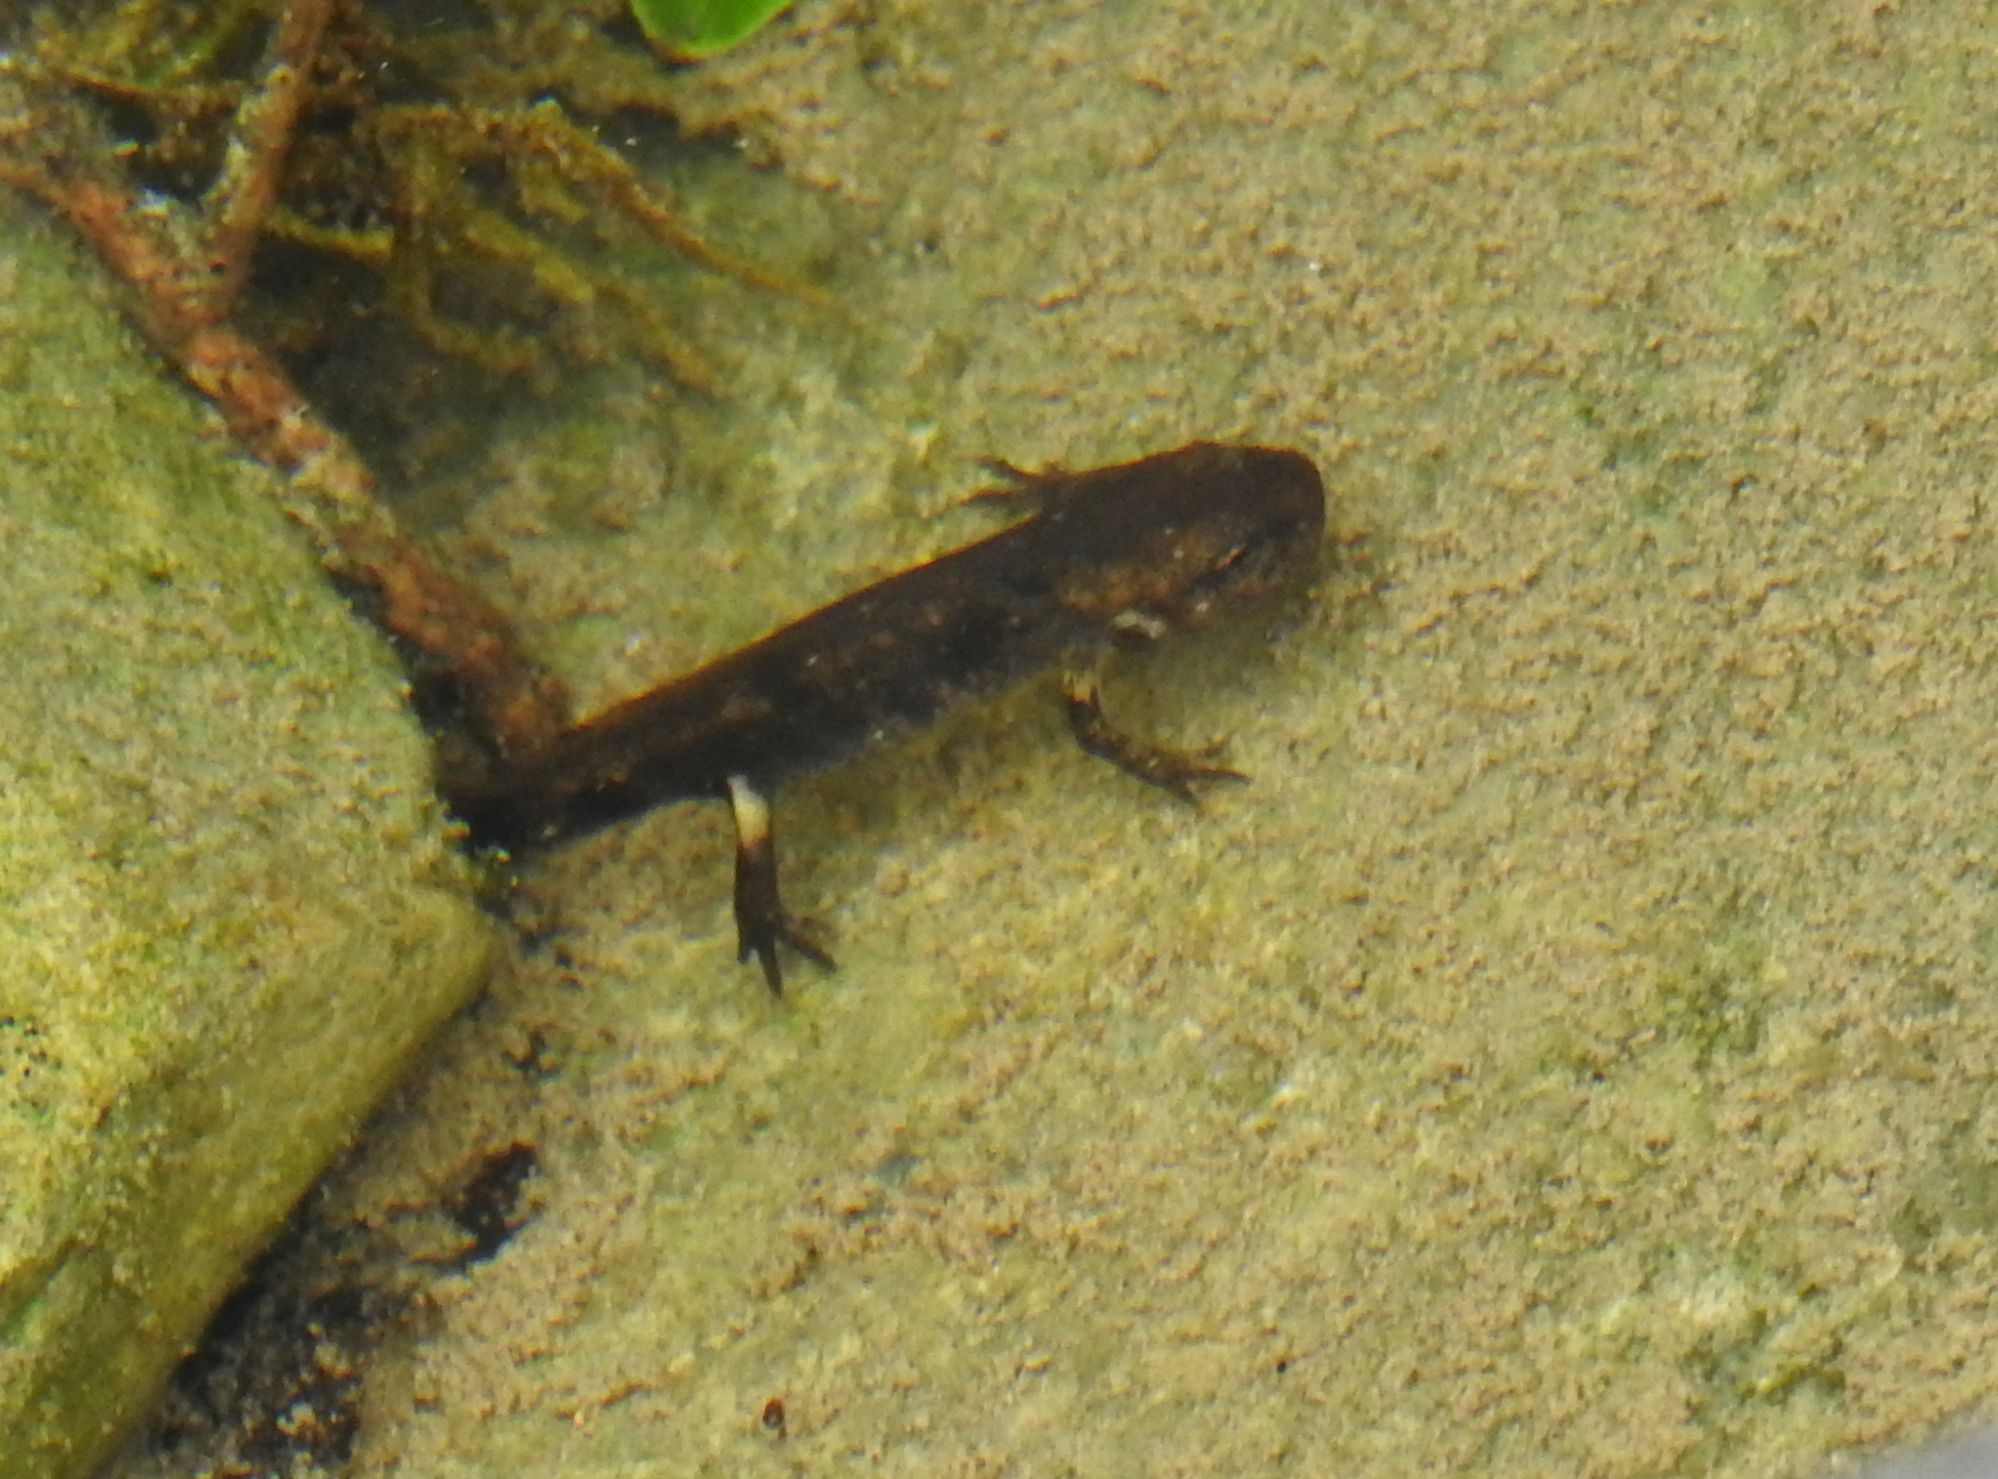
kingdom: Animalia
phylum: Chordata
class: Amphibia
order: Caudata
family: Salamandridae
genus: Salamandra
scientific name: Salamandra salamandra
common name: Fire salamander
